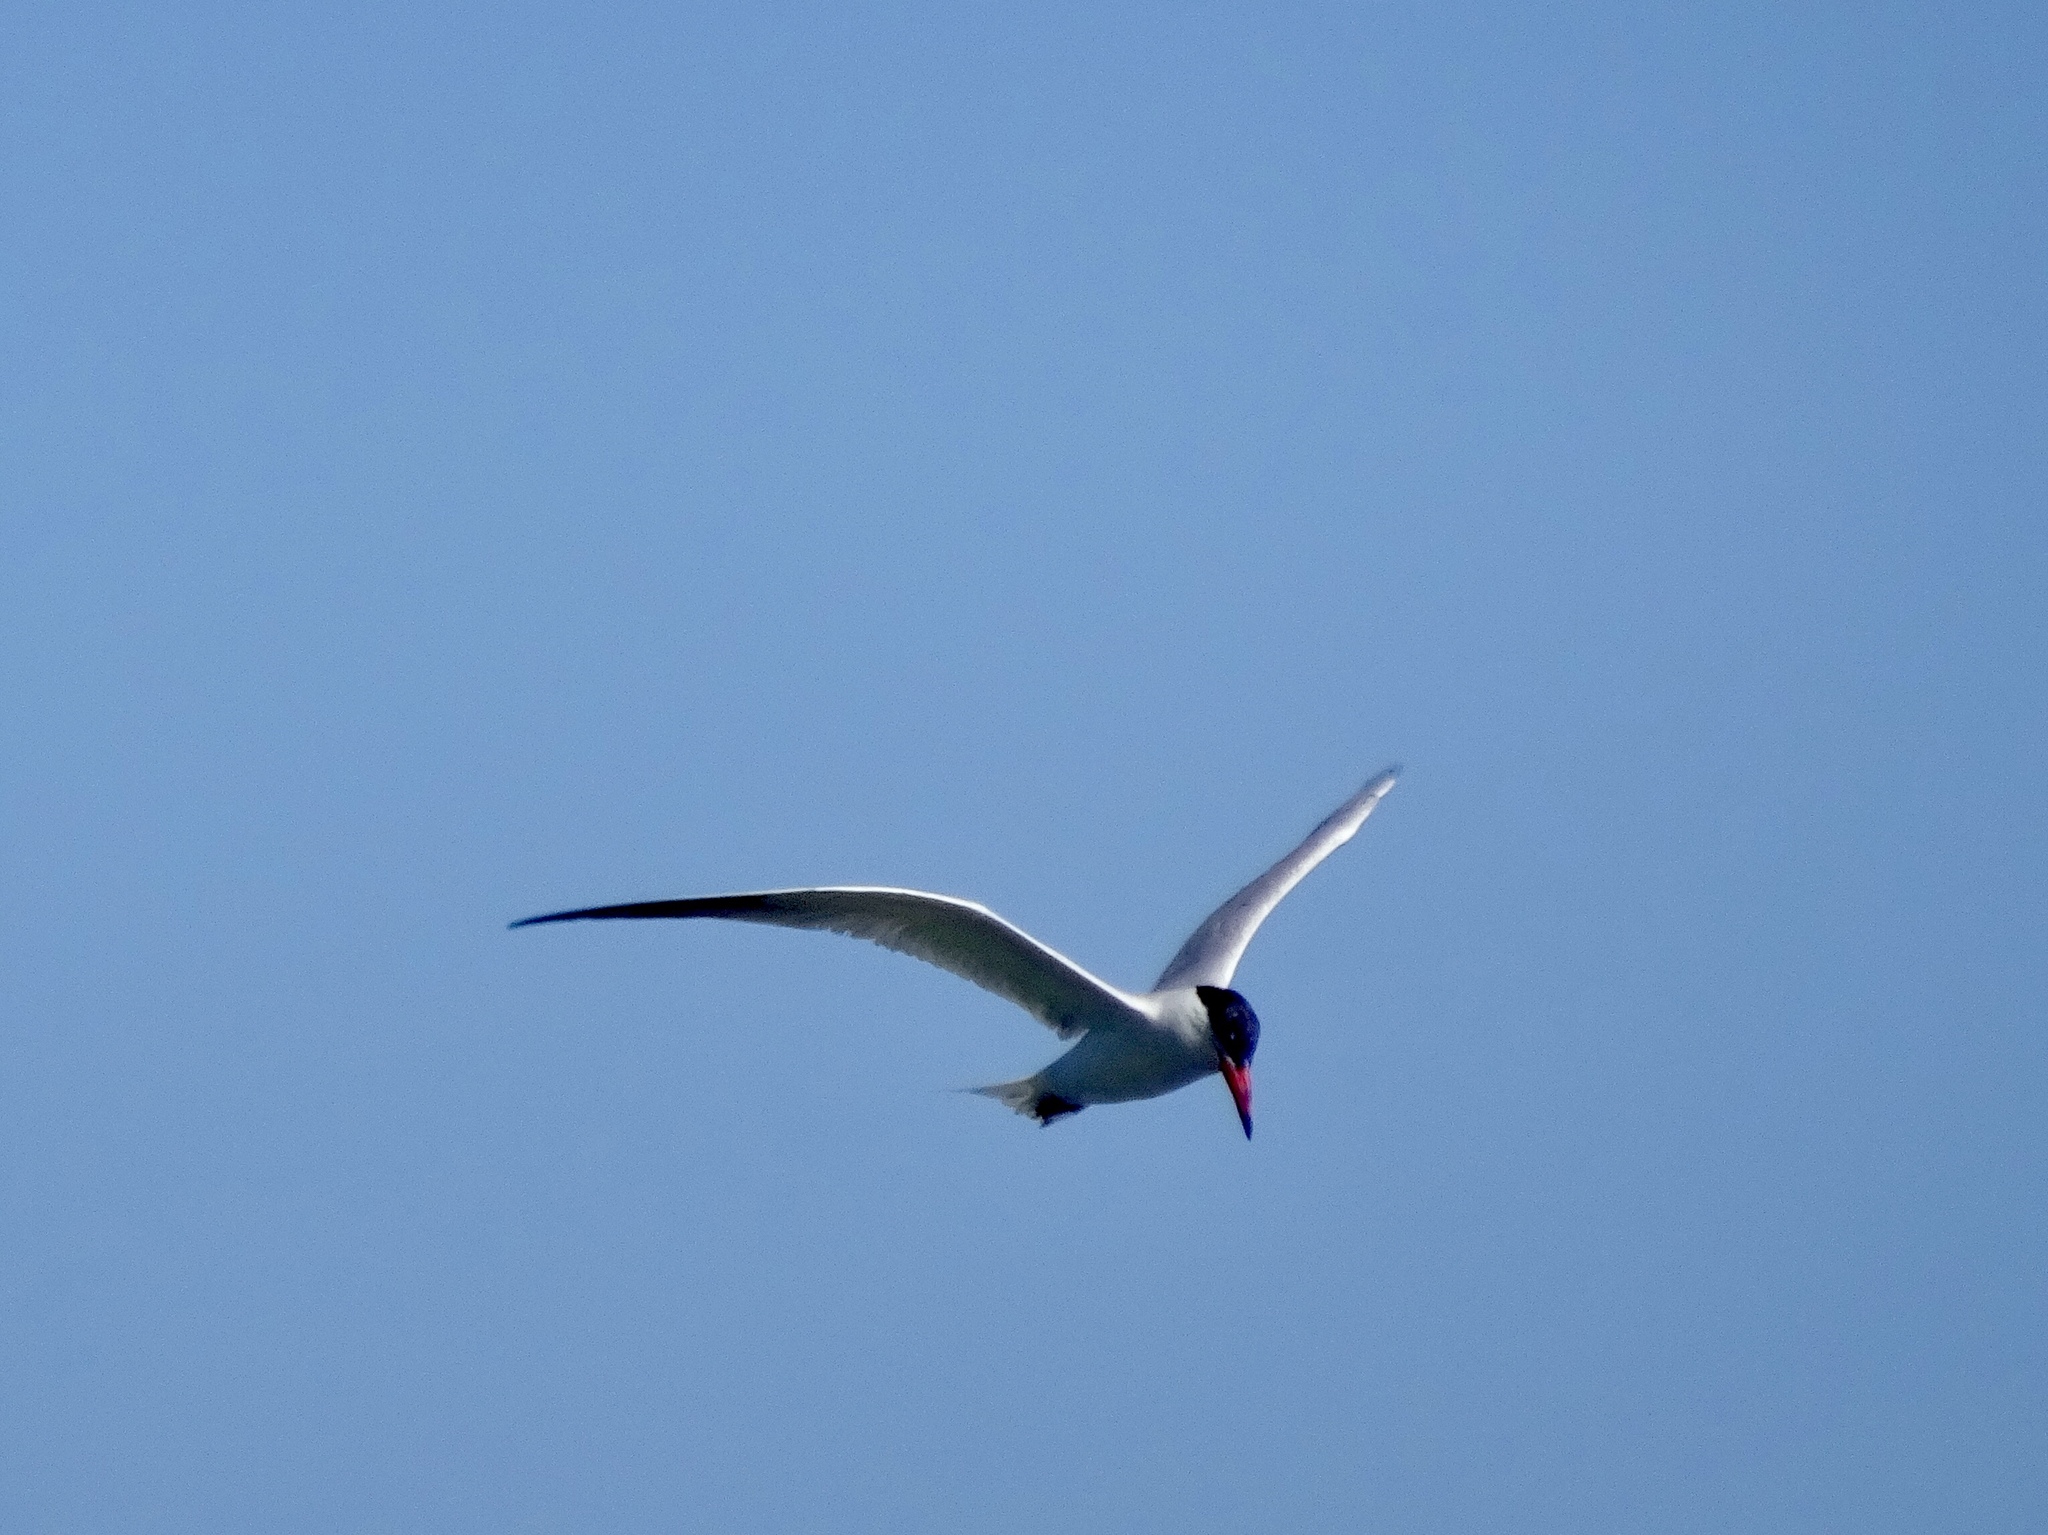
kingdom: Animalia
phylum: Chordata
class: Aves
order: Charadriiformes
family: Laridae
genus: Hydroprogne
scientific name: Hydroprogne caspia
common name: Caspian tern
